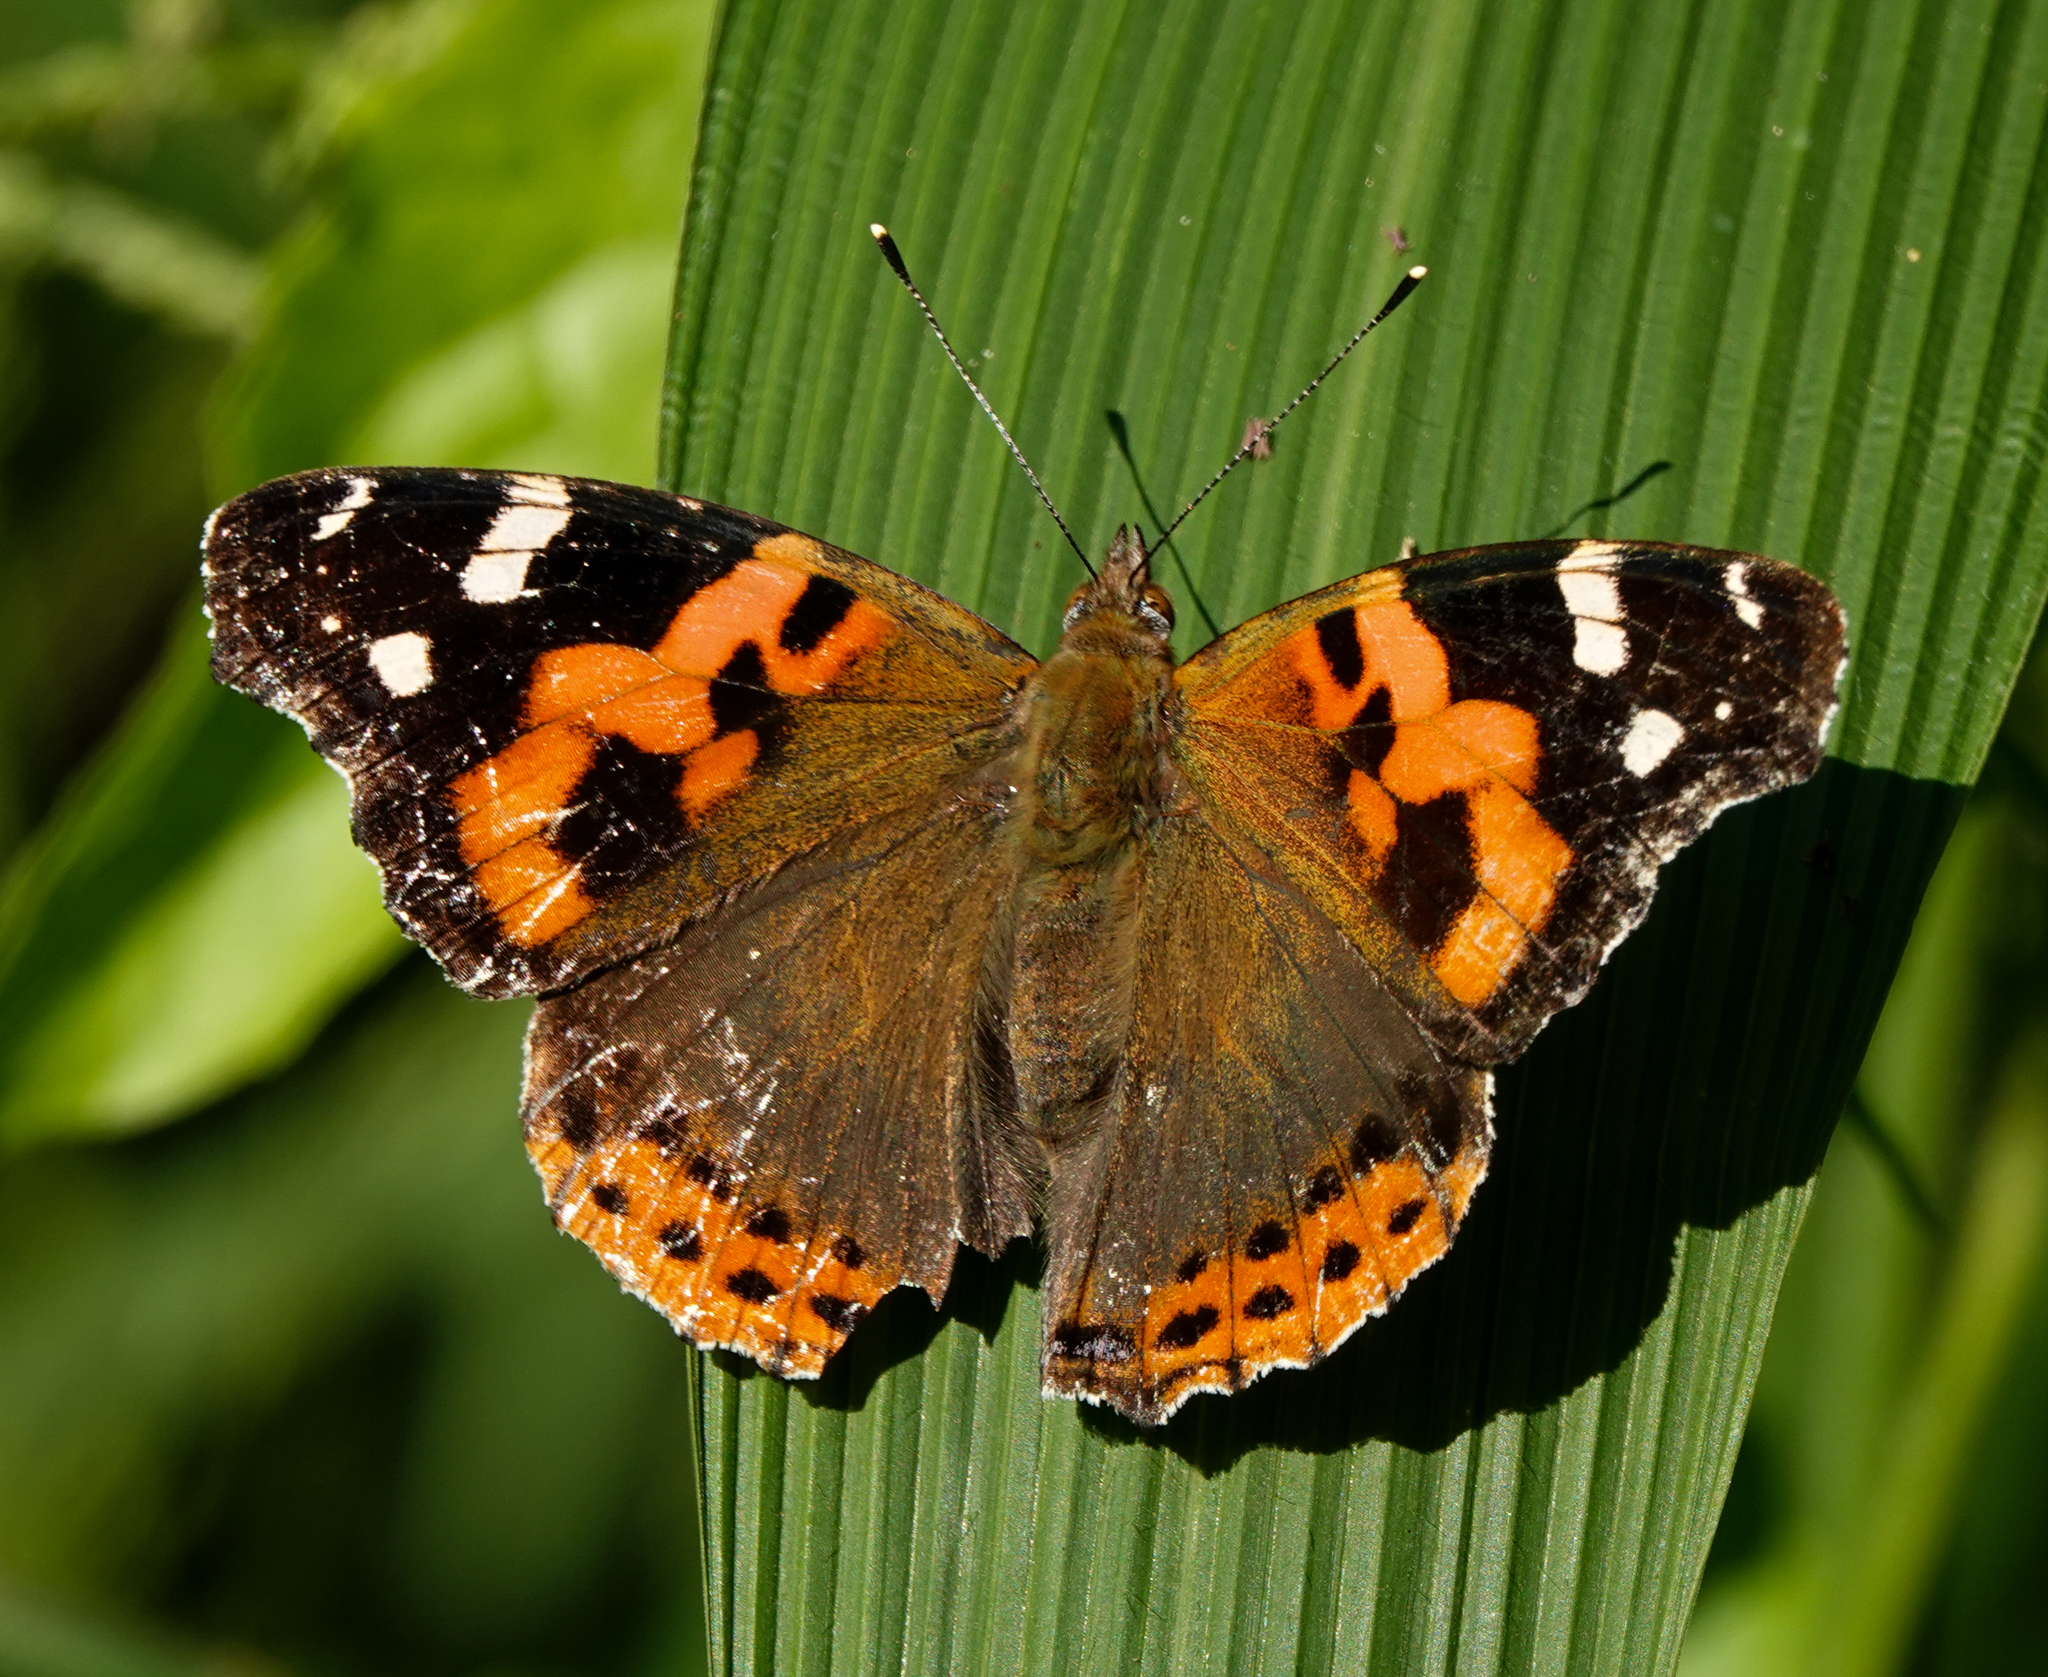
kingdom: Animalia
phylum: Arthropoda
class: Insecta
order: Lepidoptera
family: Nymphalidae
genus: Vanessa
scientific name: Vanessa indica
